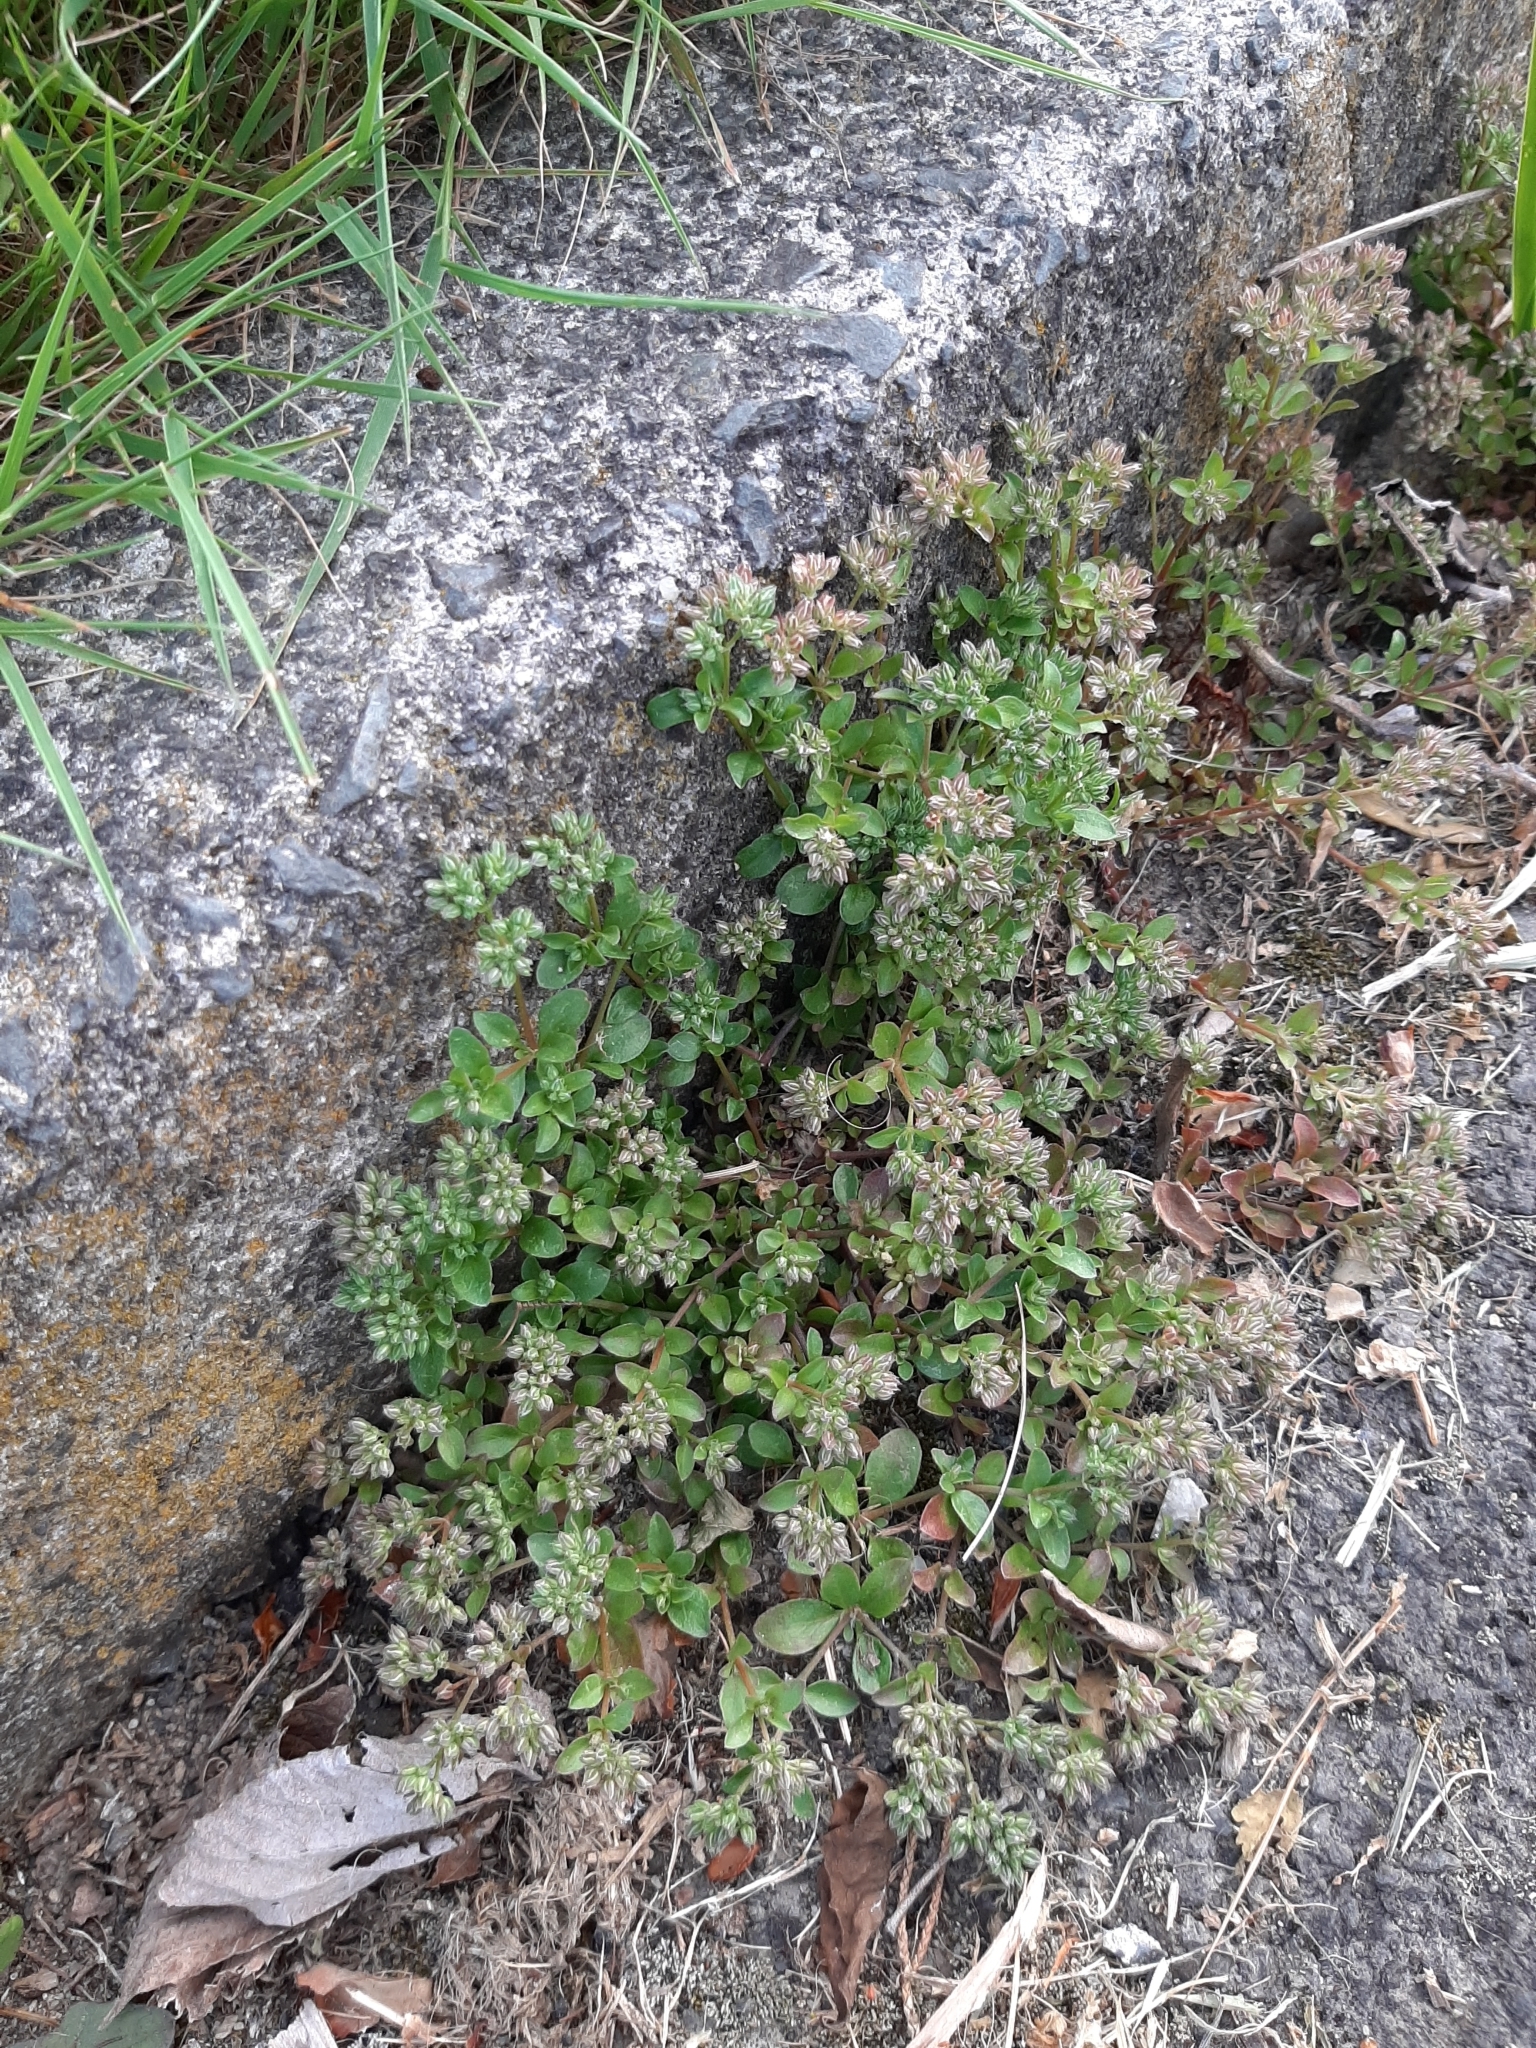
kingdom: Plantae
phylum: Tracheophyta
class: Magnoliopsida
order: Caryophyllales
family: Caryophyllaceae
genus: Polycarpon
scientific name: Polycarpon tetraphyllum
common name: Four-leaved all-seed
